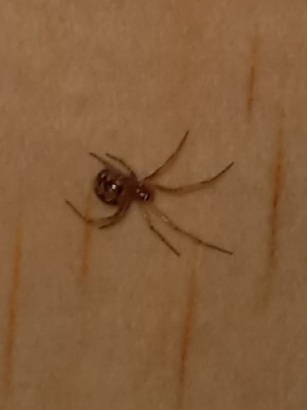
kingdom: Animalia
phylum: Arthropoda
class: Arachnida
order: Araneae
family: Theridiidae
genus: Steatoda
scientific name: Steatoda triangulosa
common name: Triangulate bud spider
